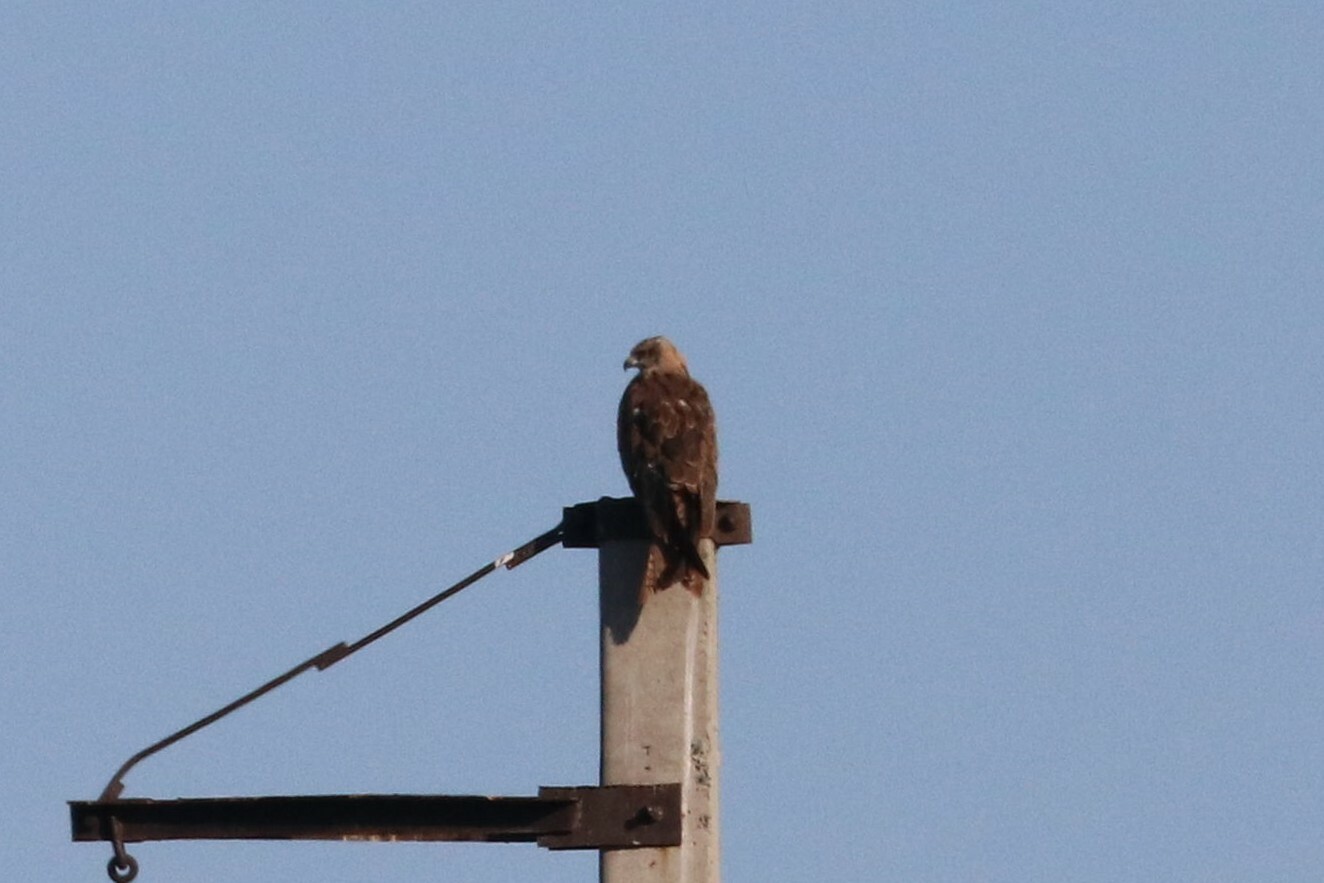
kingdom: Animalia
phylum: Chordata
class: Aves
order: Accipitriformes
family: Accipitridae
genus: Milvus
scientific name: Milvus migrans
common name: Black kite
